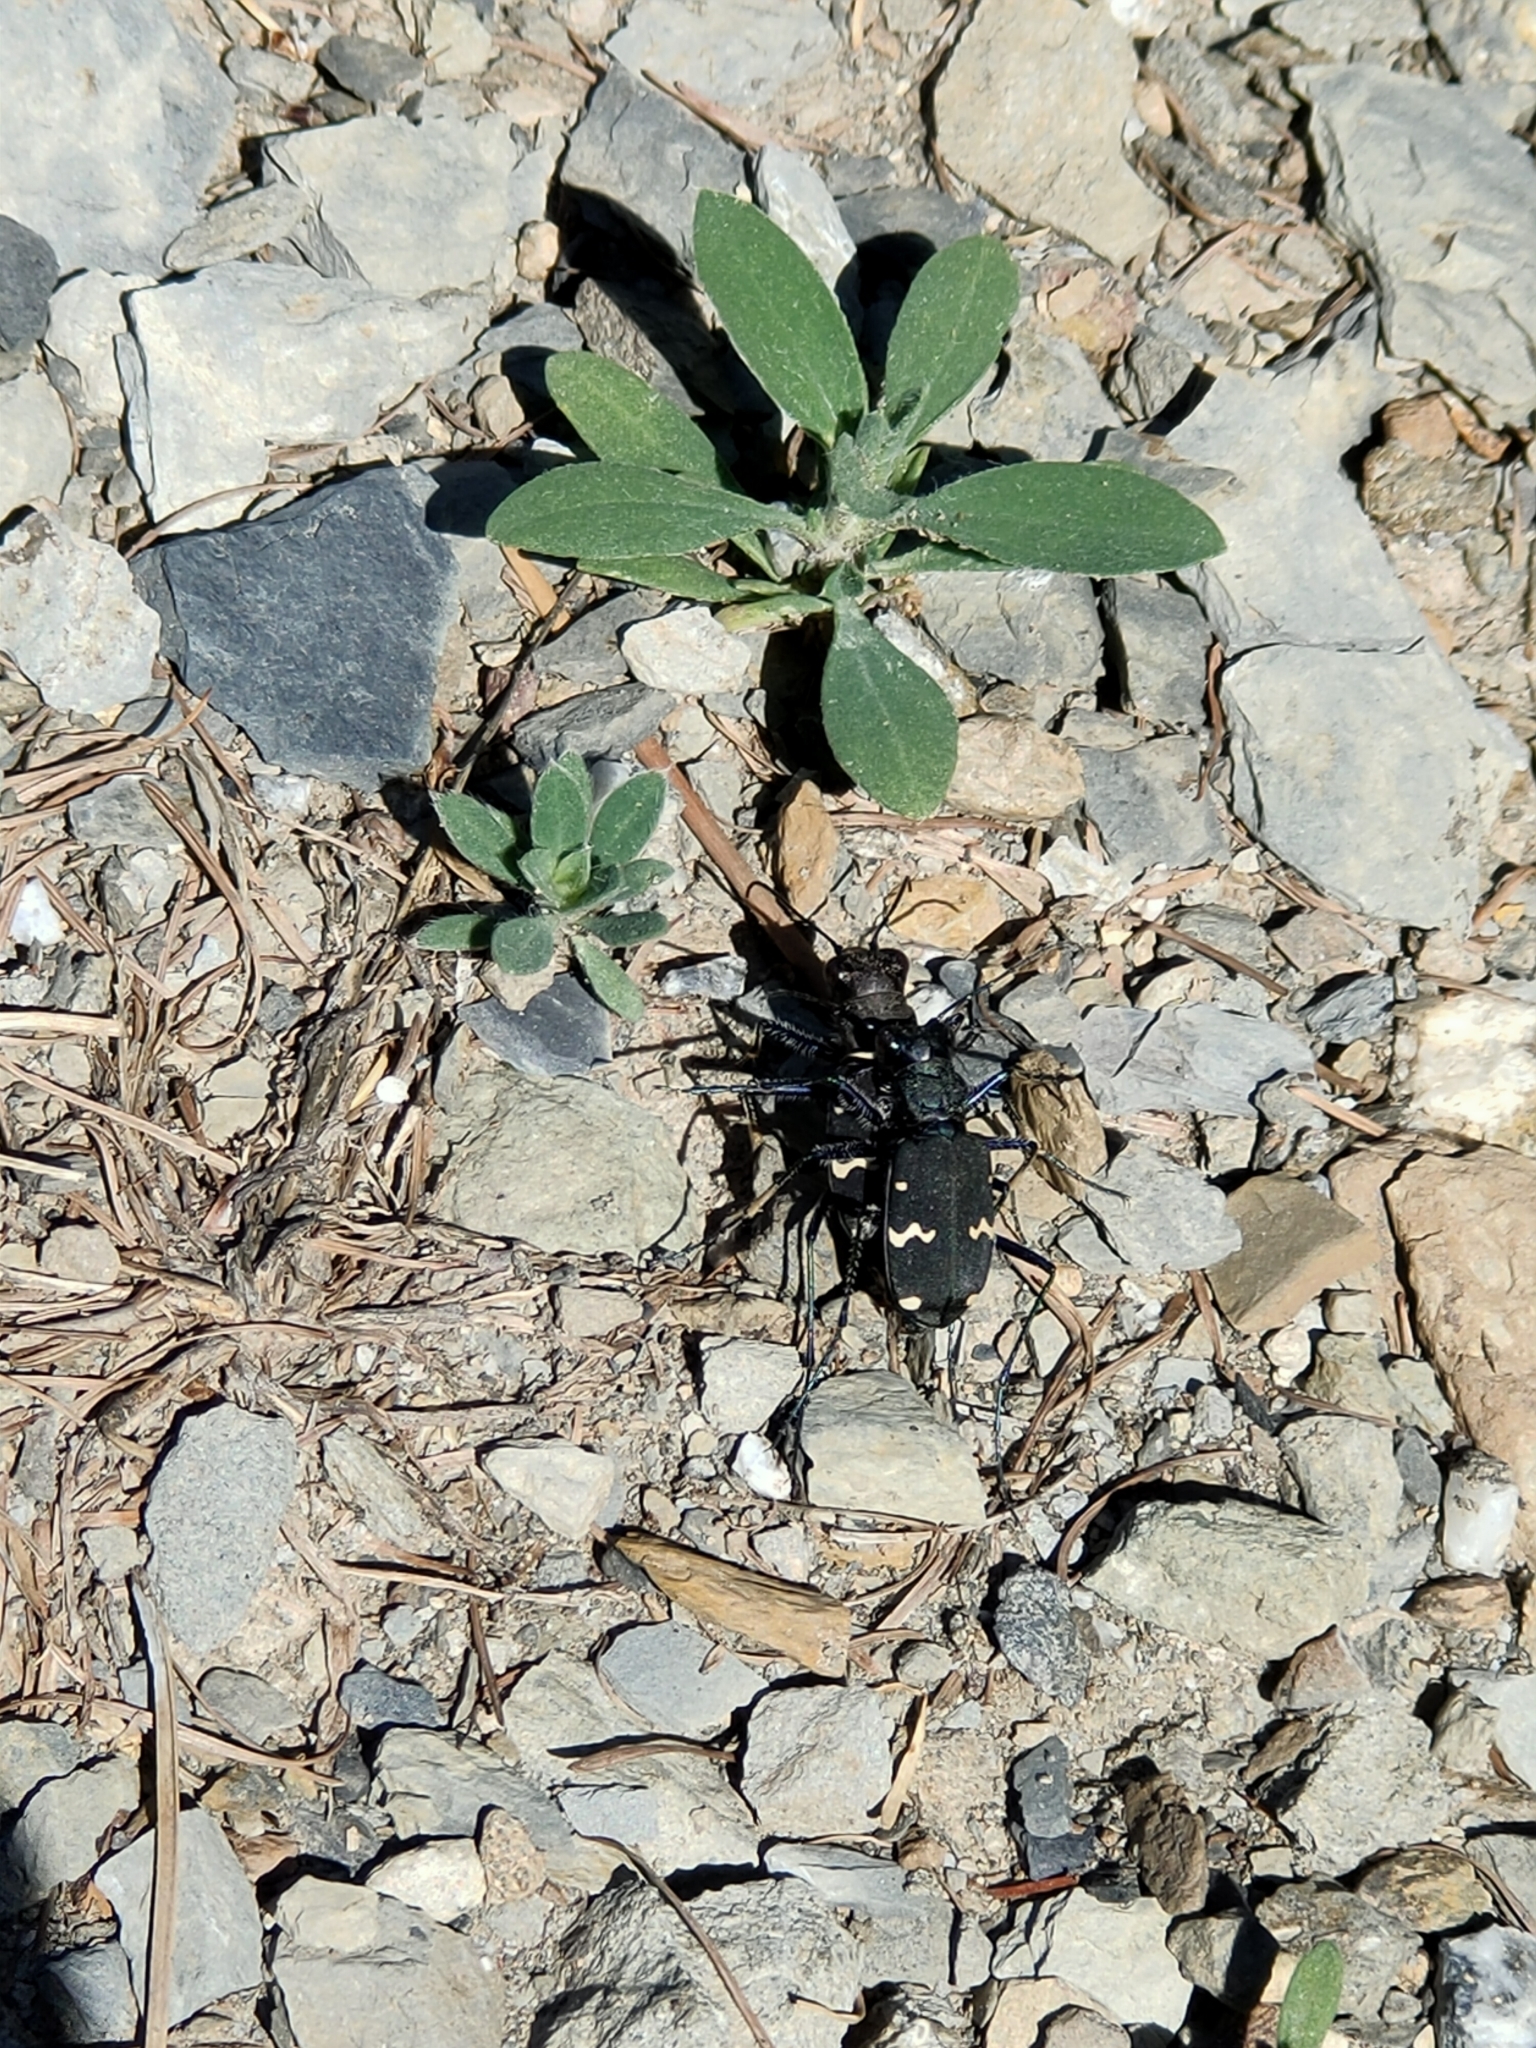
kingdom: Animalia
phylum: Arthropoda
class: Insecta
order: Coleoptera
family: Carabidae
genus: Cicindela
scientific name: Cicindela sachalinensis
